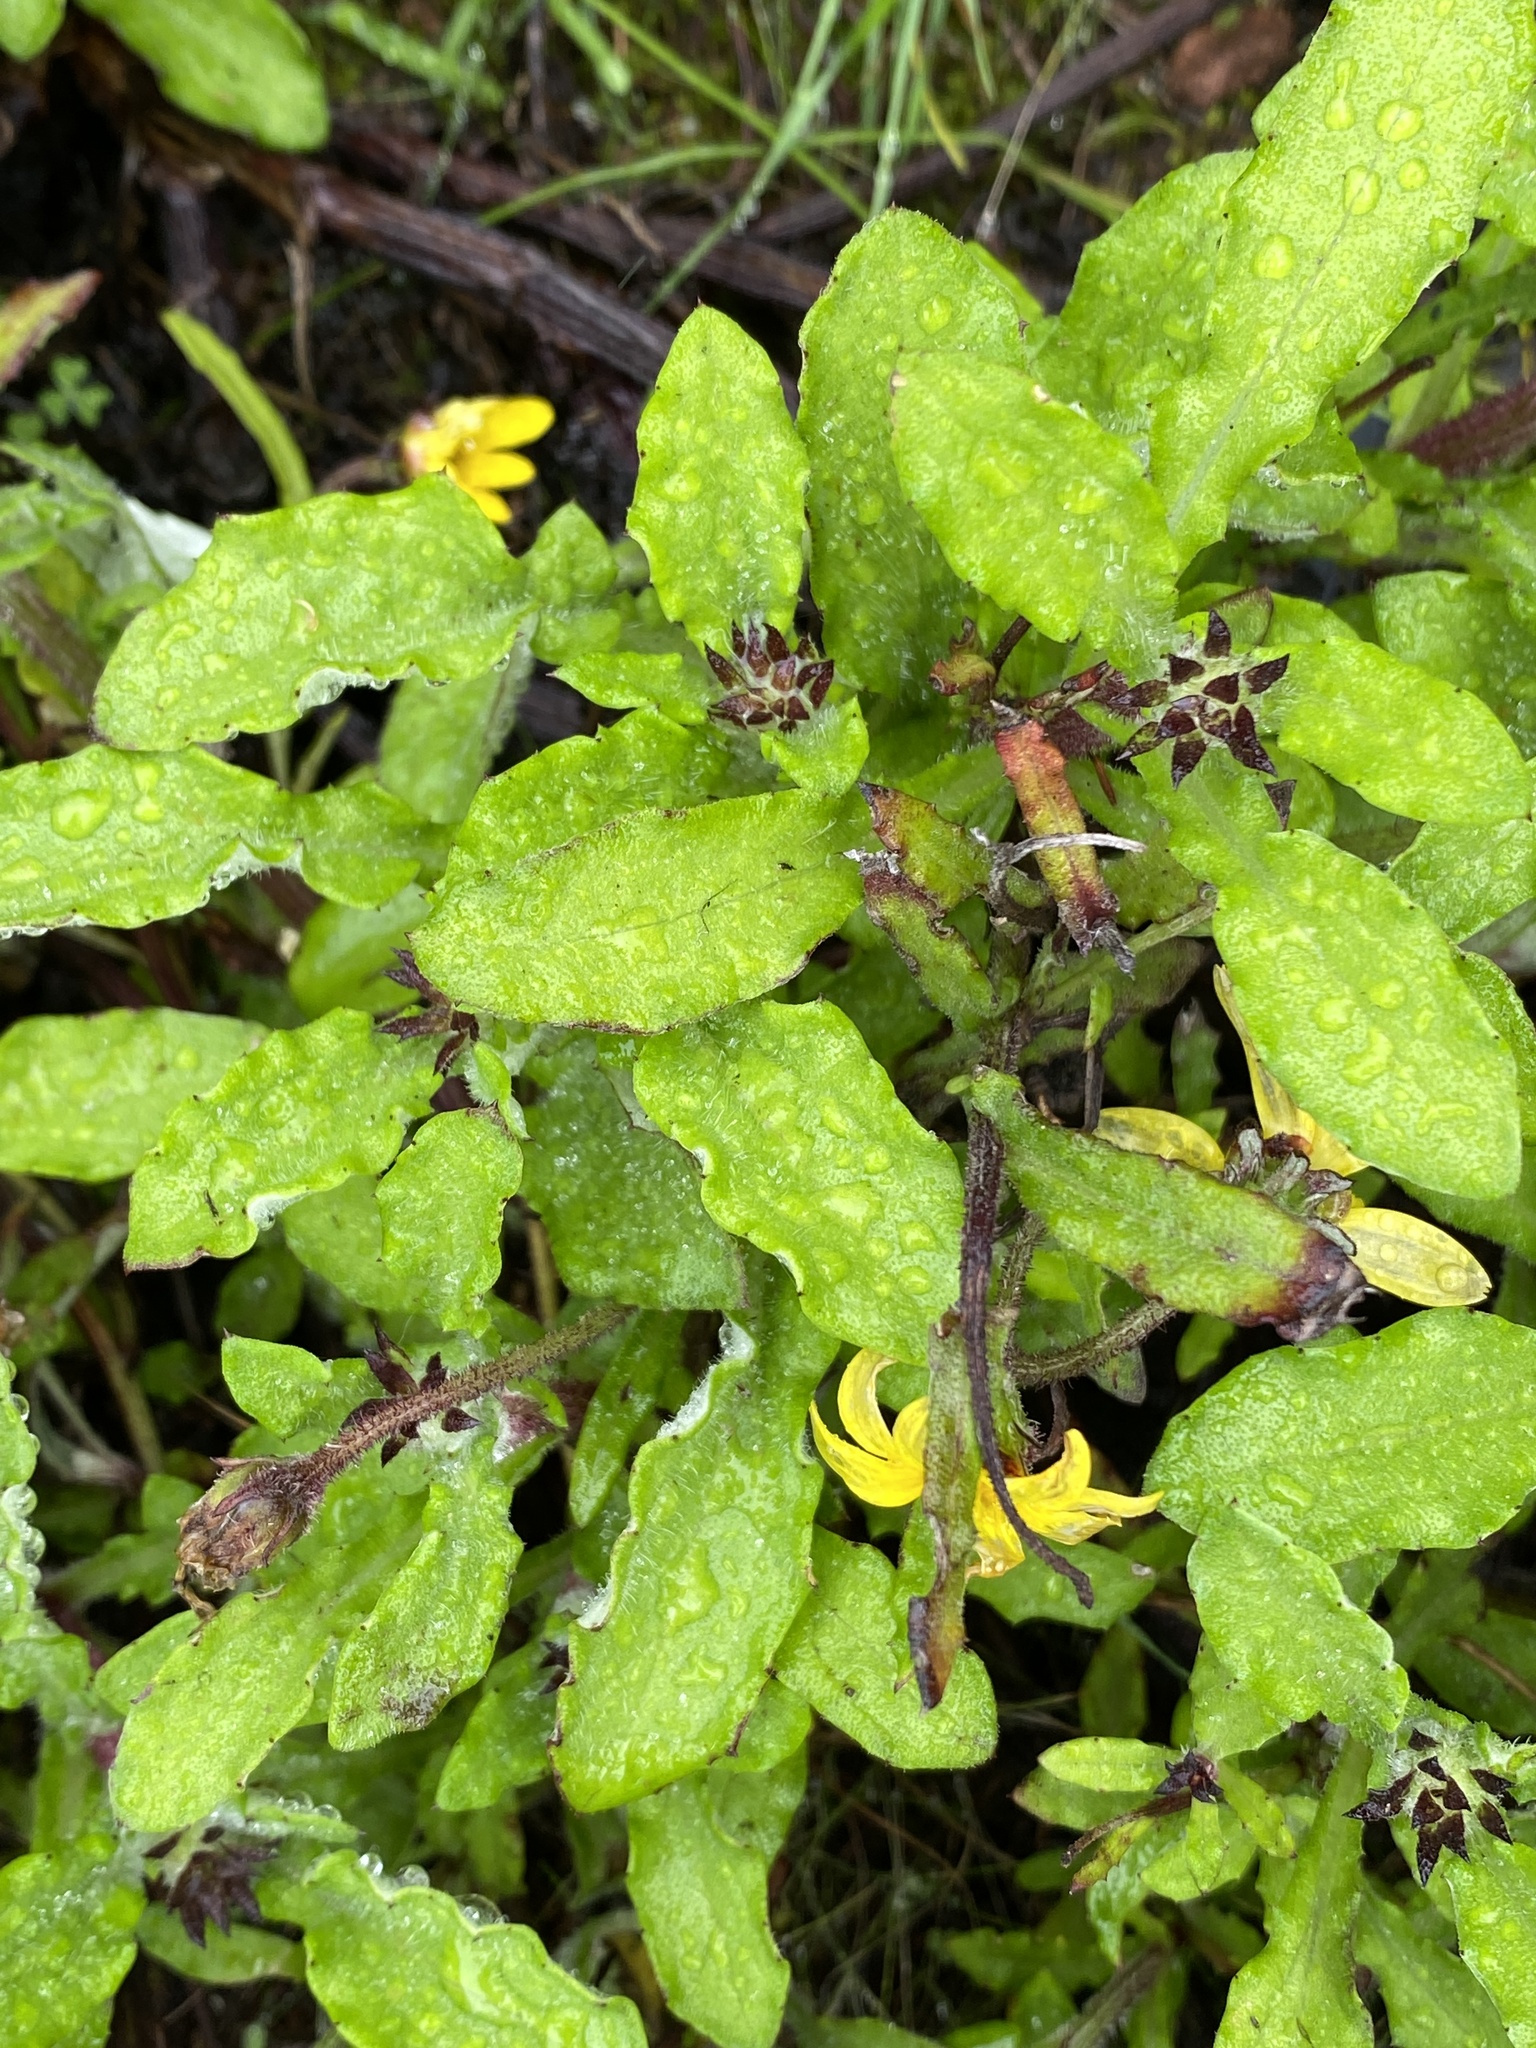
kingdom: Plantae
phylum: Tracheophyta
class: Magnoliopsida
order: Asterales
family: Asteraceae
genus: Arctotis
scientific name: Arctotis scabra
